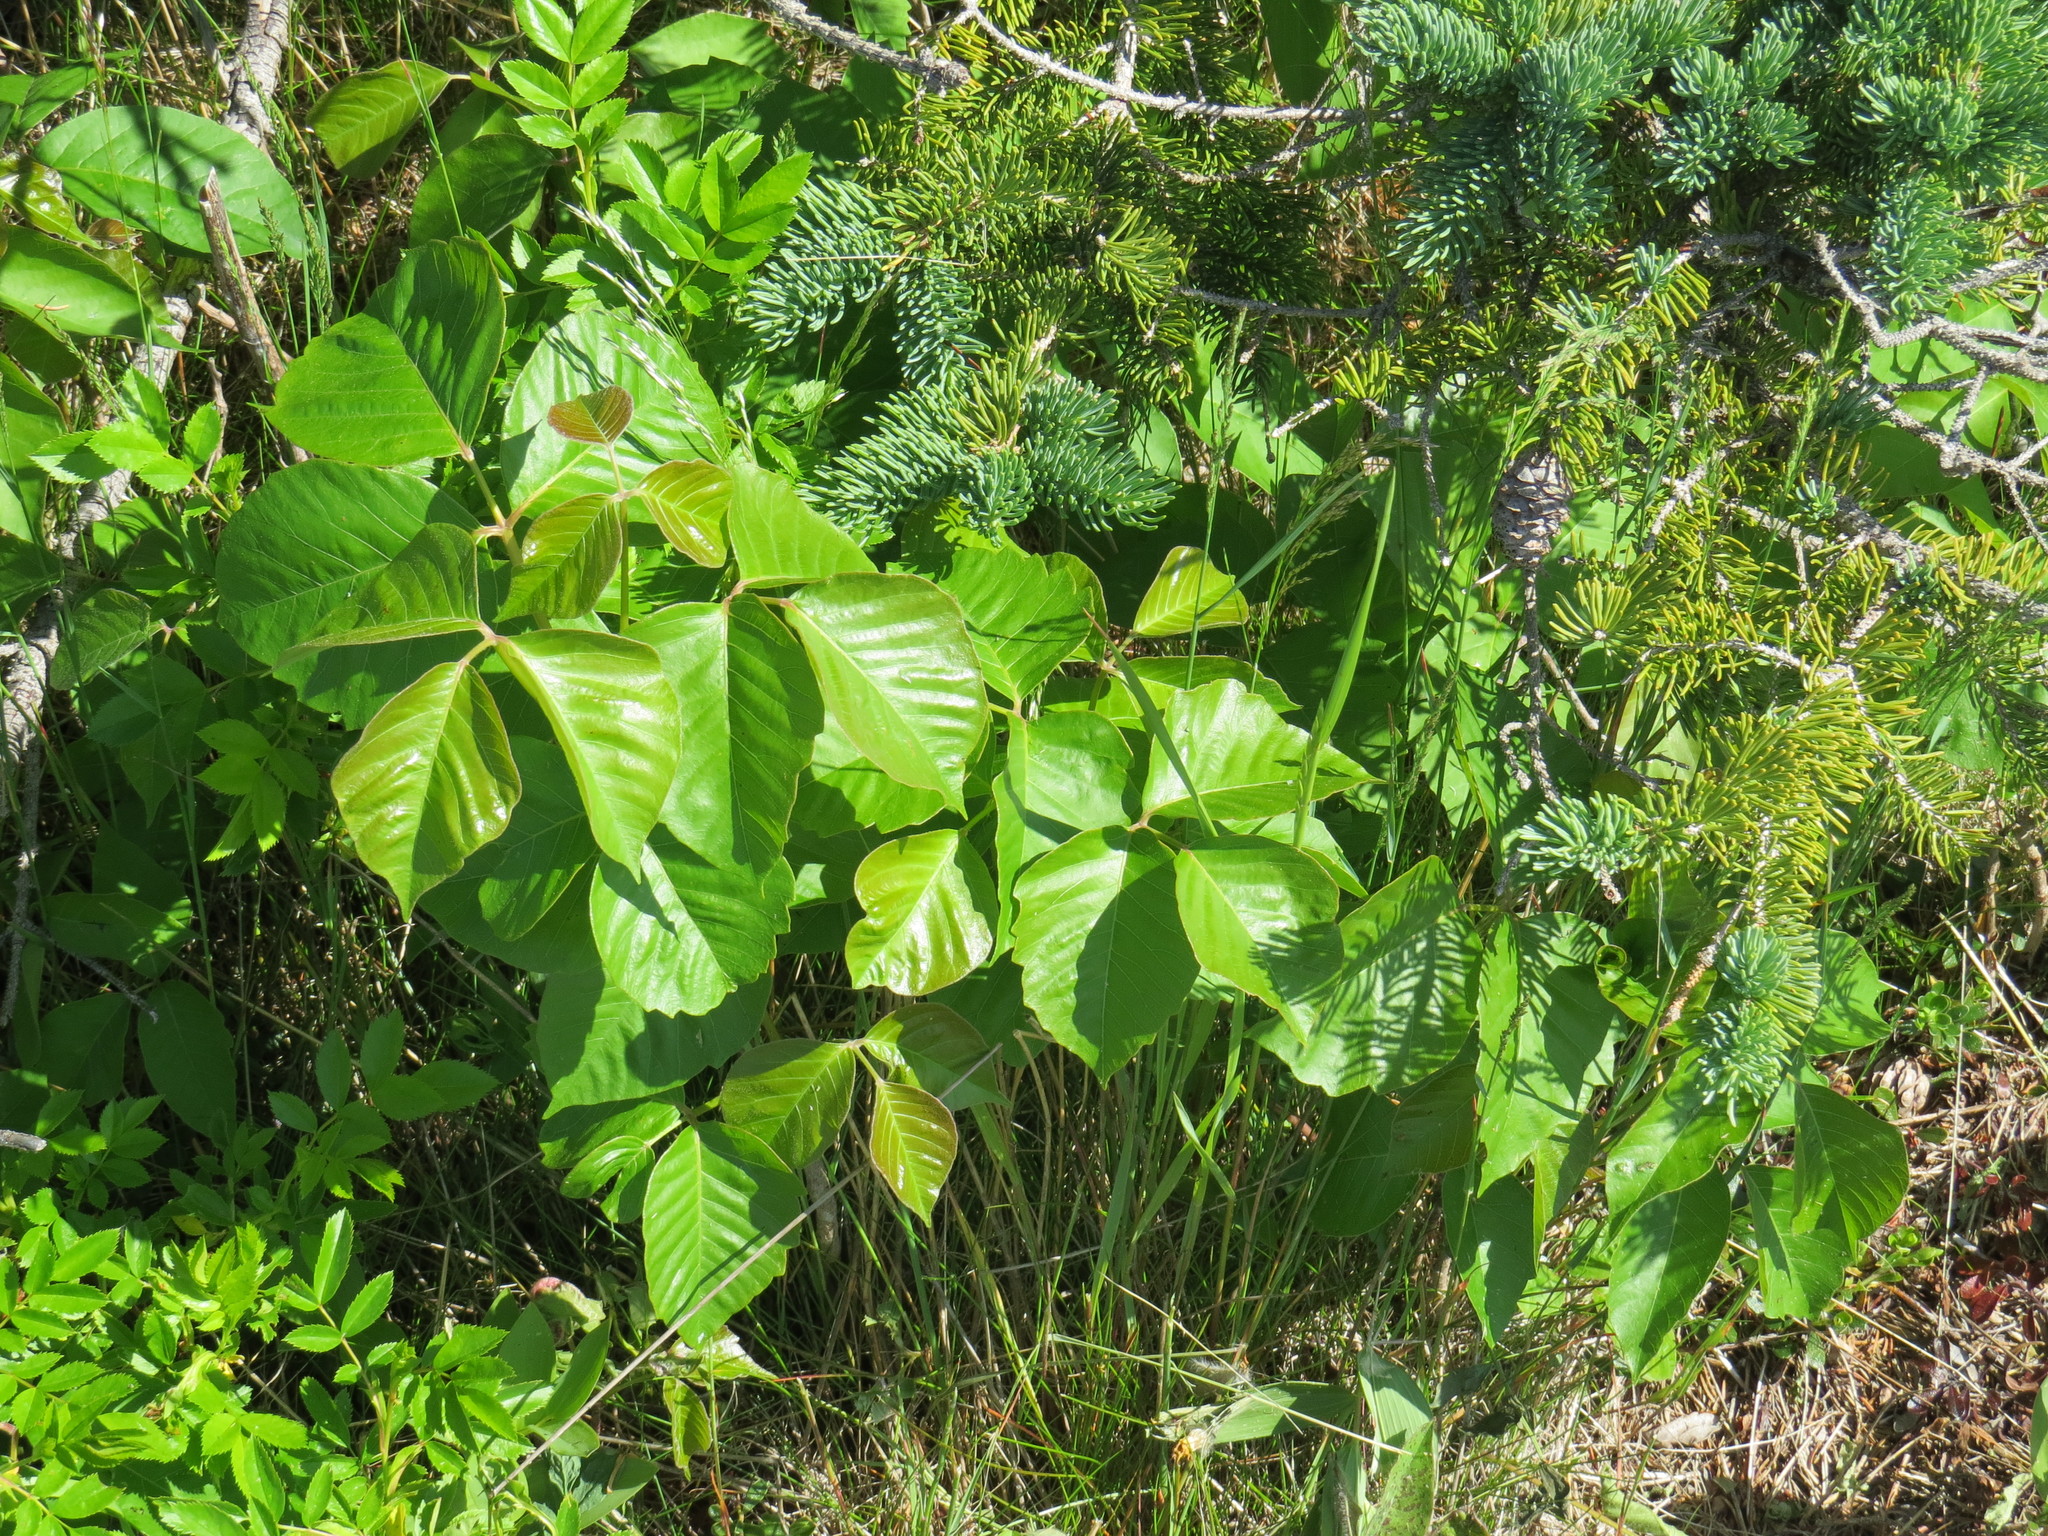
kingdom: Plantae
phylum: Tracheophyta
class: Magnoliopsida
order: Sapindales
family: Anacardiaceae
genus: Toxicodendron
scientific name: Toxicodendron radicans
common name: Poison ivy
